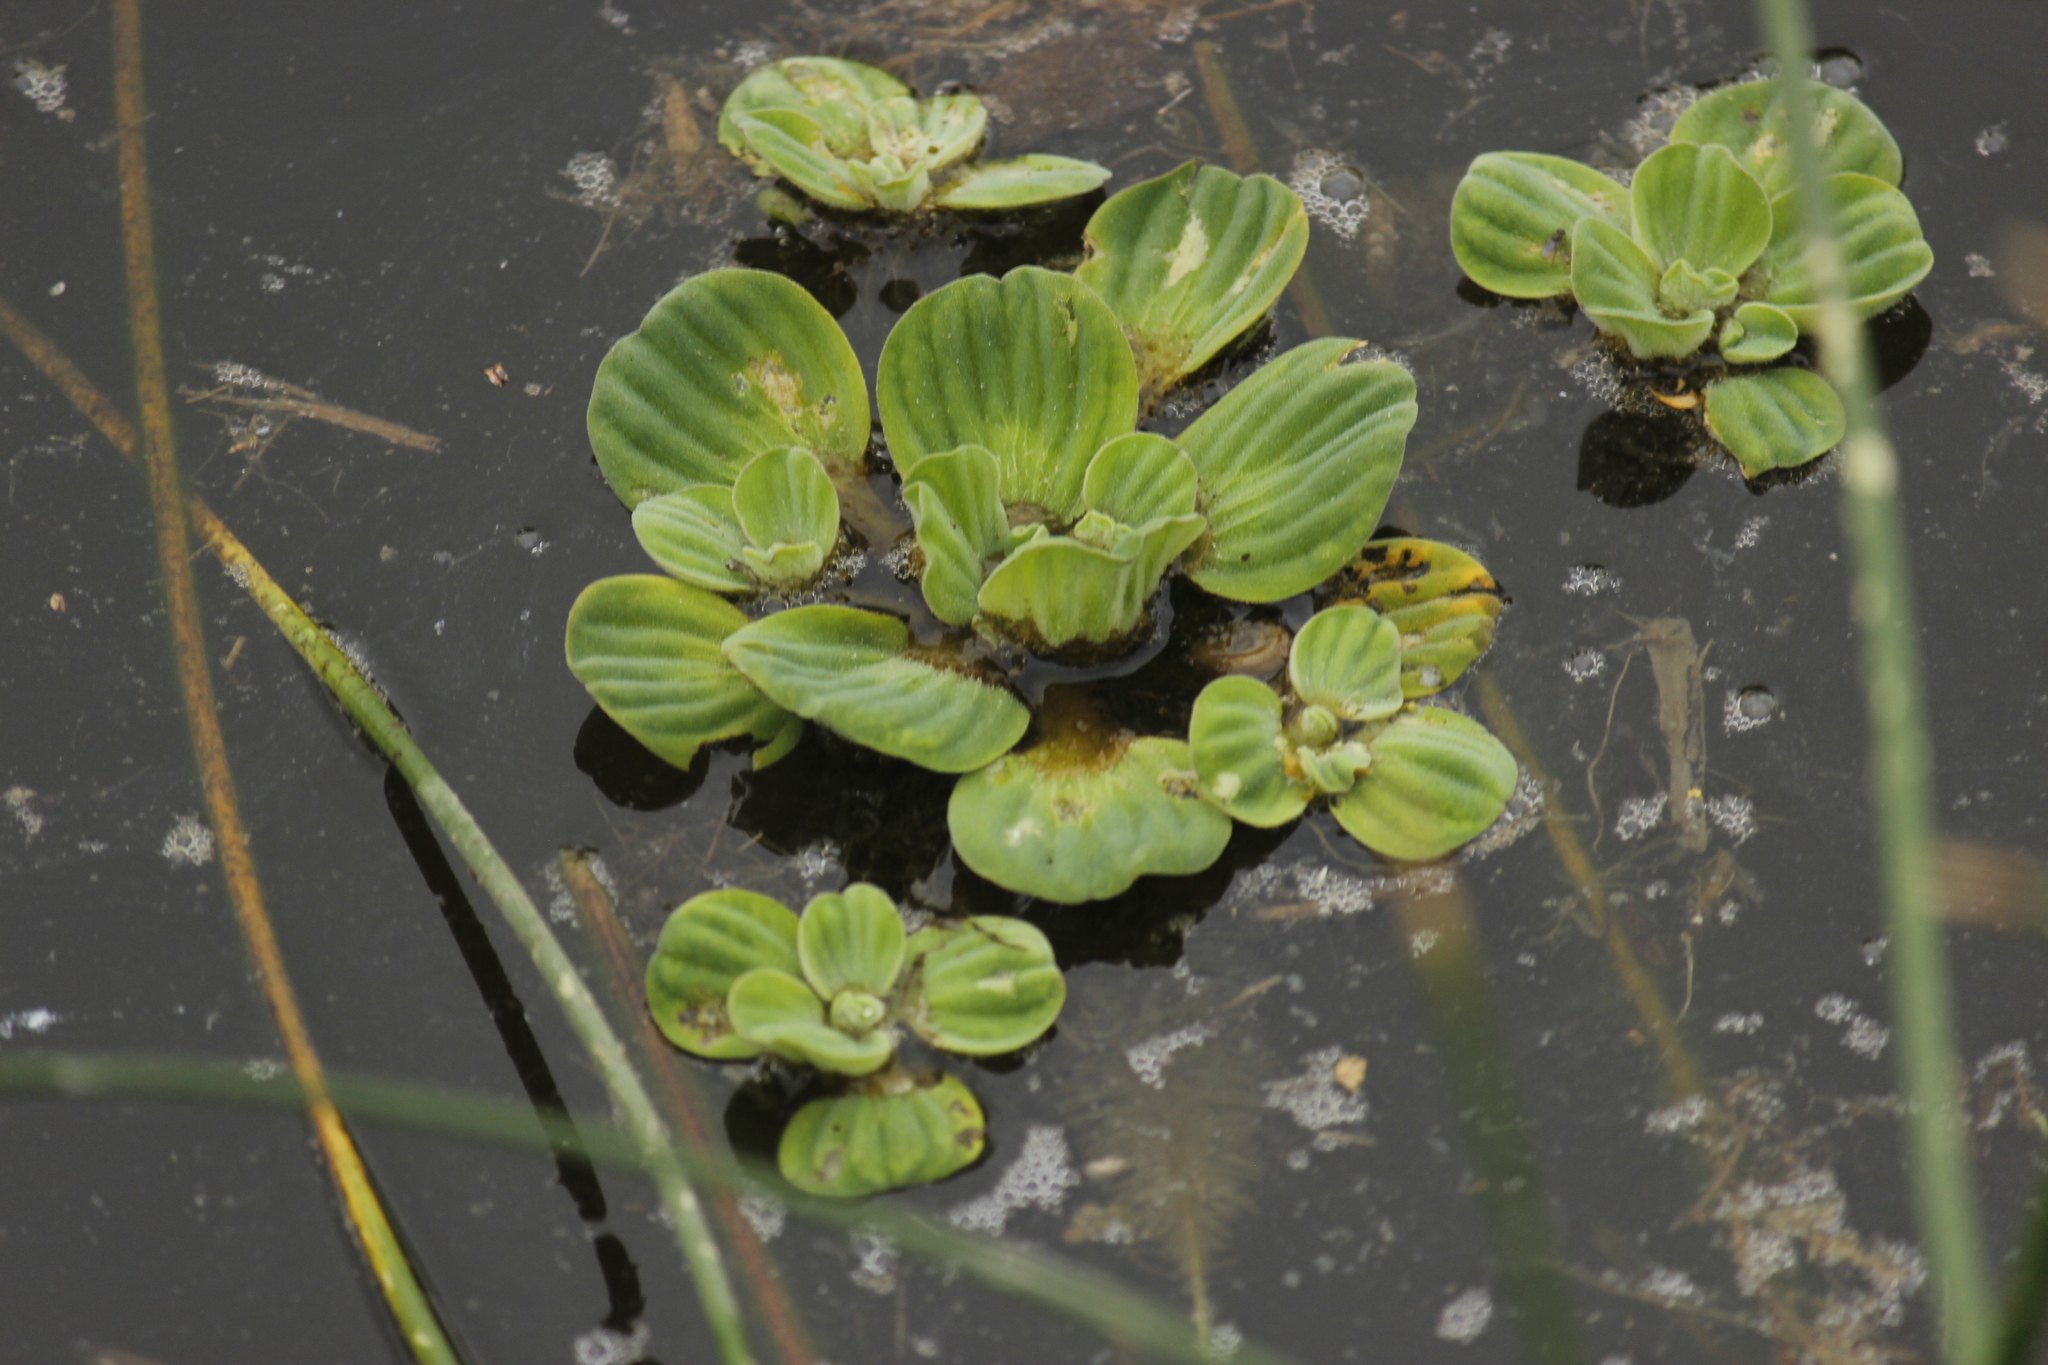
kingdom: Plantae
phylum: Tracheophyta
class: Liliopsida
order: Alismatales
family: Araceae
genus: Pistia
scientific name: Pistia stratiotes
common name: Water lettuce
